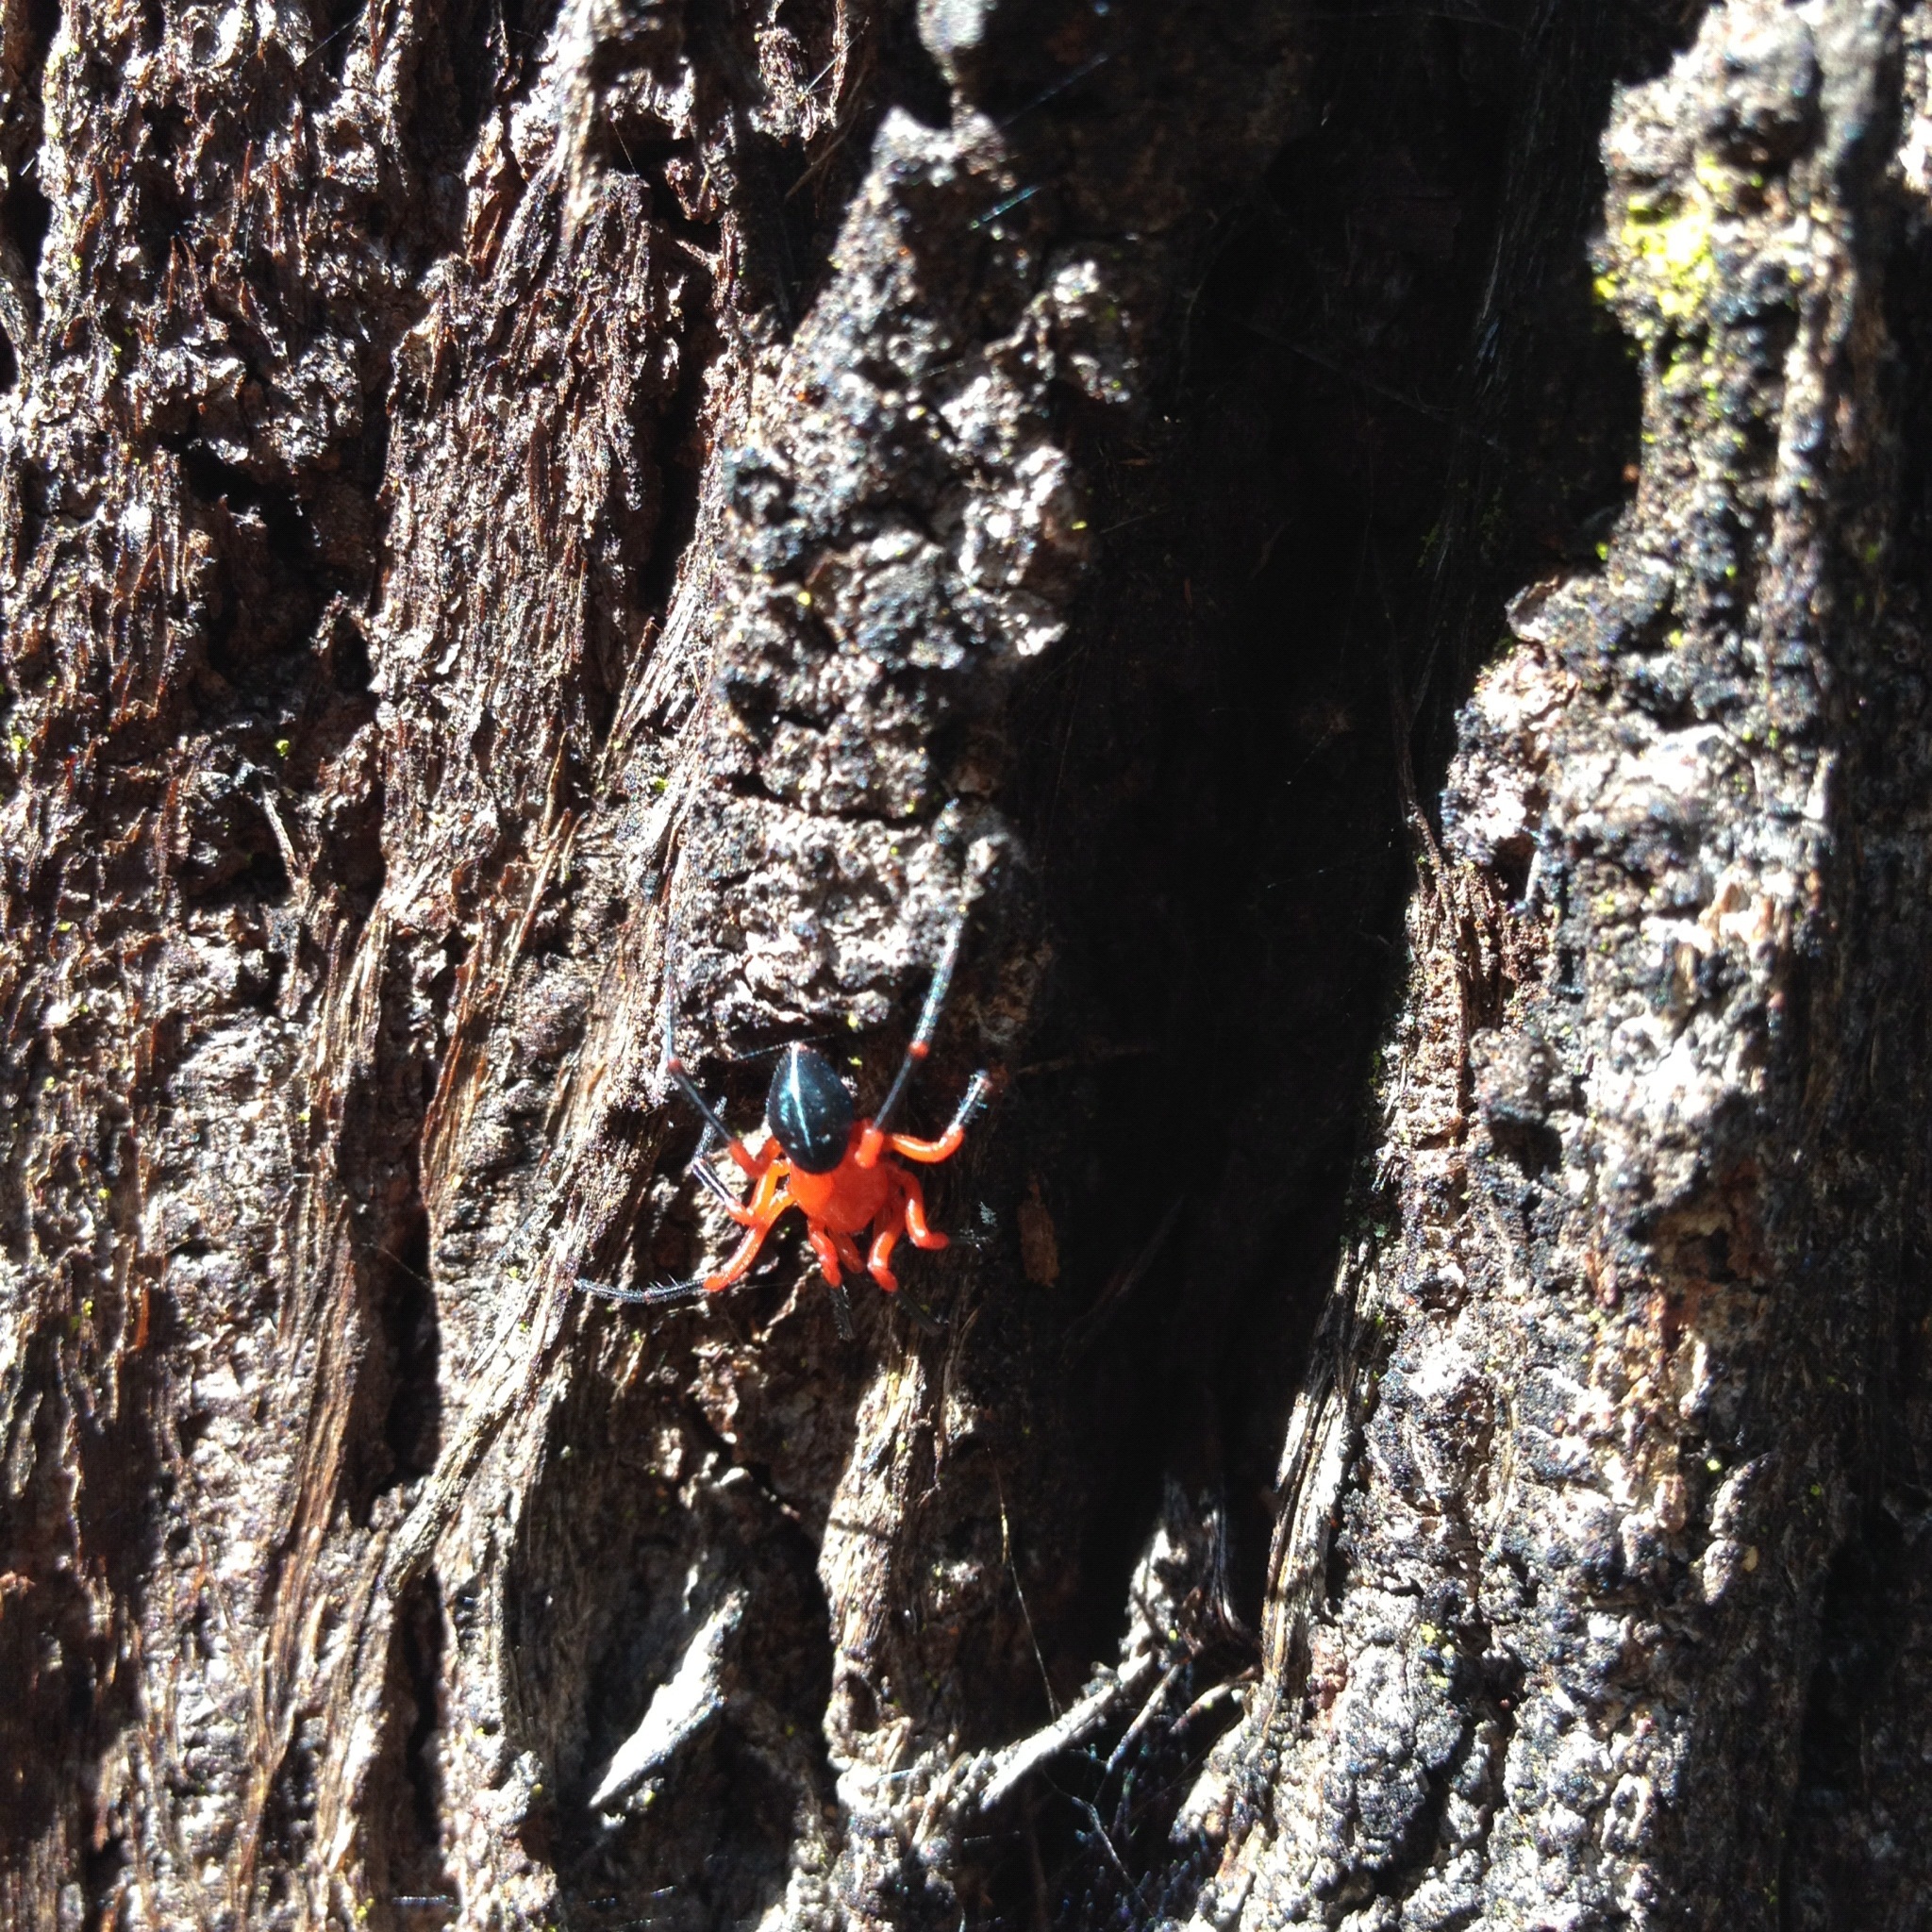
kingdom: Animalia
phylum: Arthropoda
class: Arachnida
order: Araneae
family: Nicodamidae
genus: Nicodamus
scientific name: Nicodamus peregrinus
